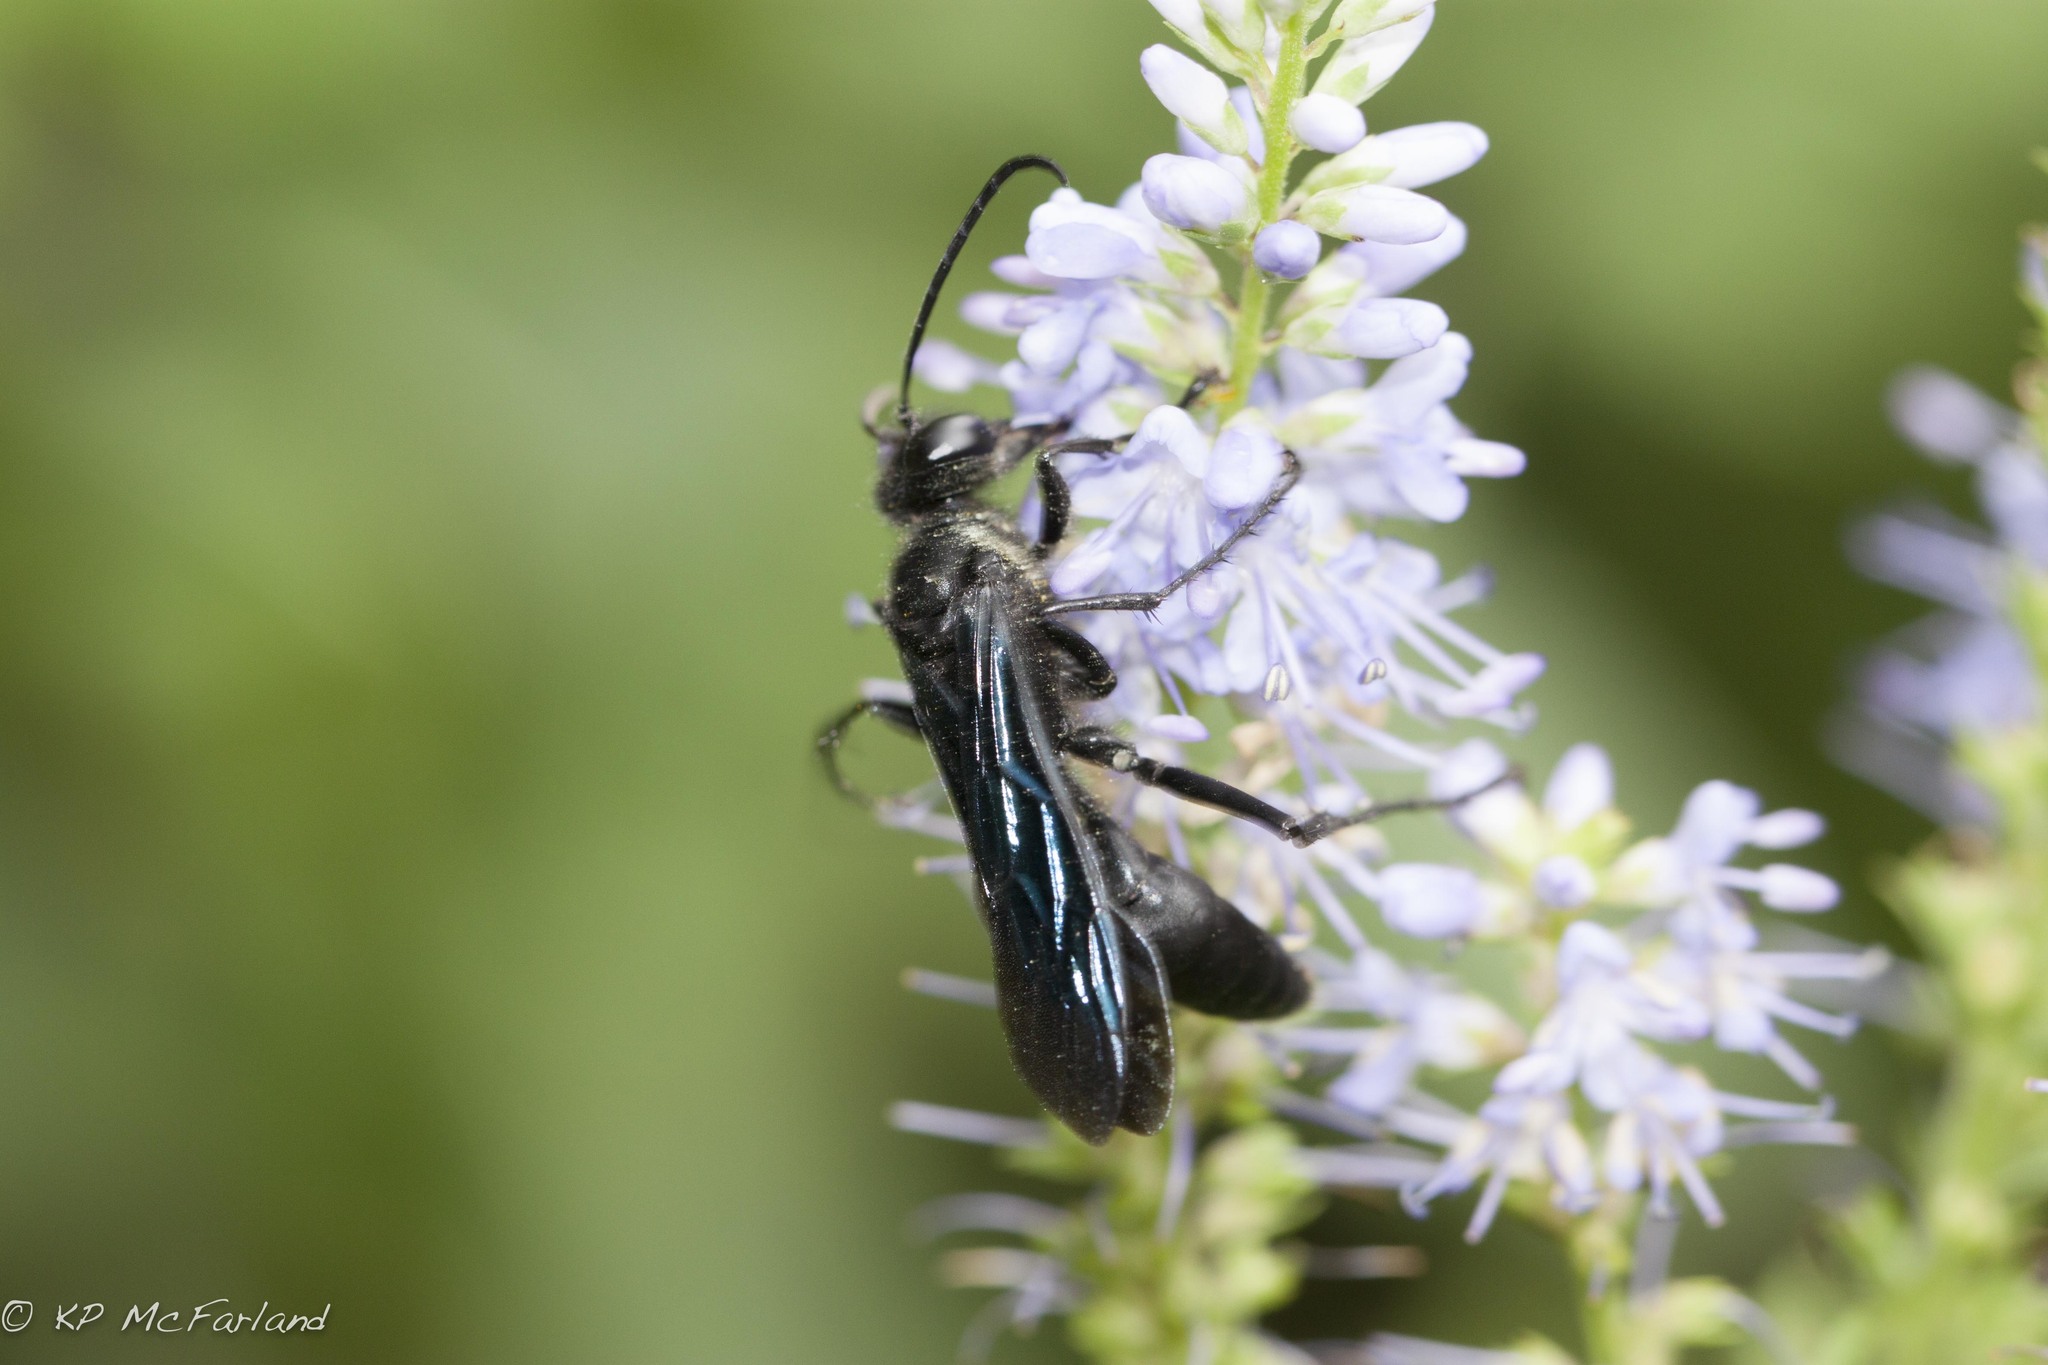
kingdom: Animalia
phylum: Arthropoda
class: Insecta
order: Hymenoptera
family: Sphecidae
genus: Sphex
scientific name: Sphex pensylvanicus
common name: Great black digger wasp
